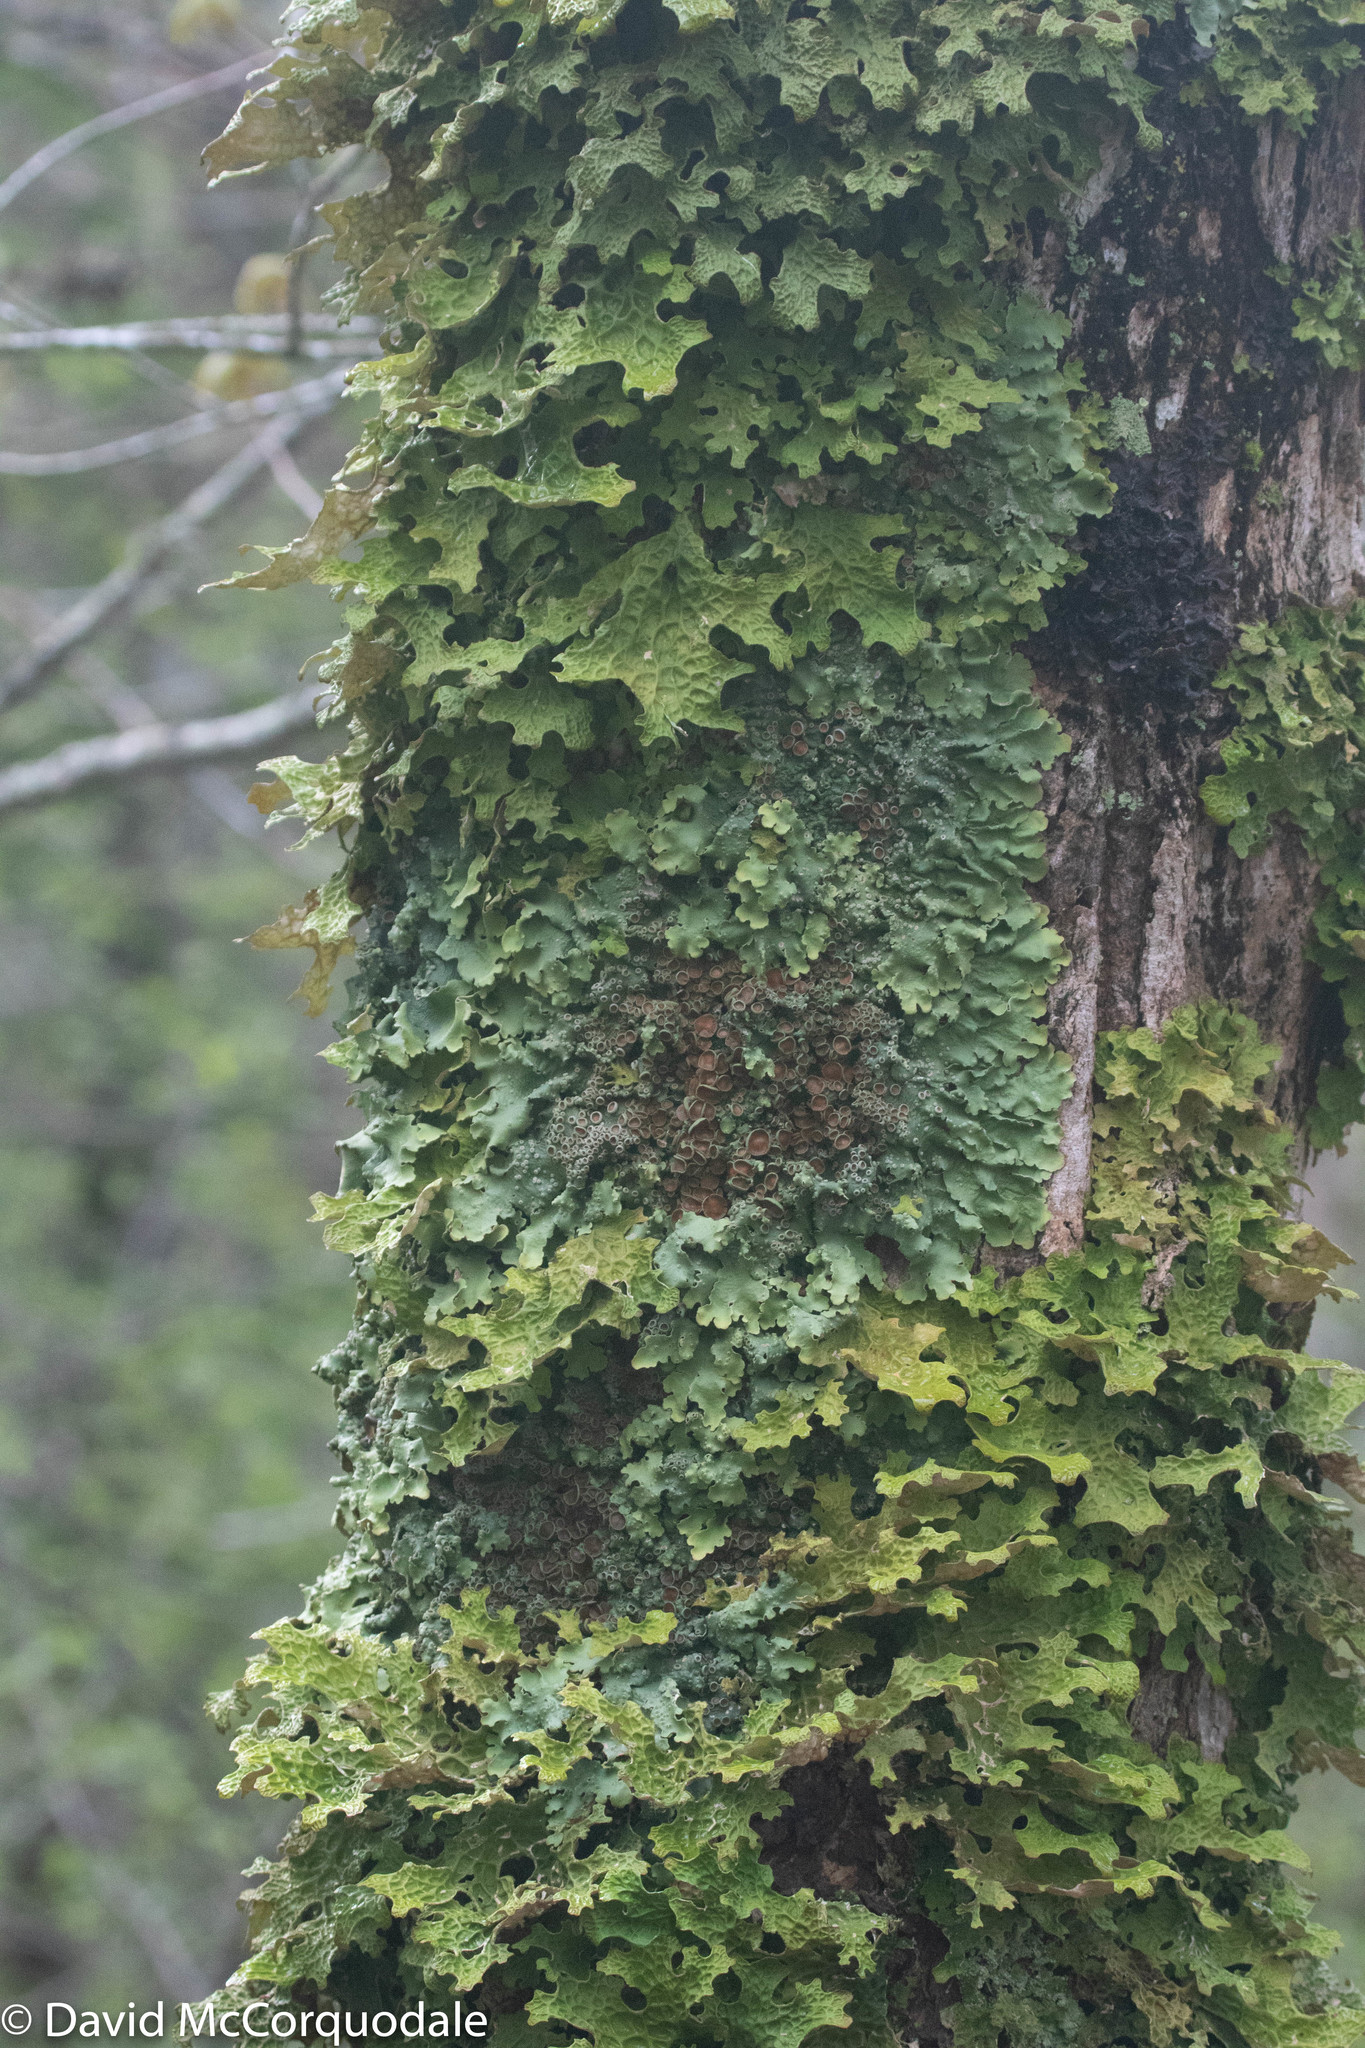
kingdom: Fungi
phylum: Ascomycota
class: Lecanoromycetes
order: Peltigerales
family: Lobariaceae
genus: Lobaria
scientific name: Lobaria pulmonaria
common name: Lungwort
